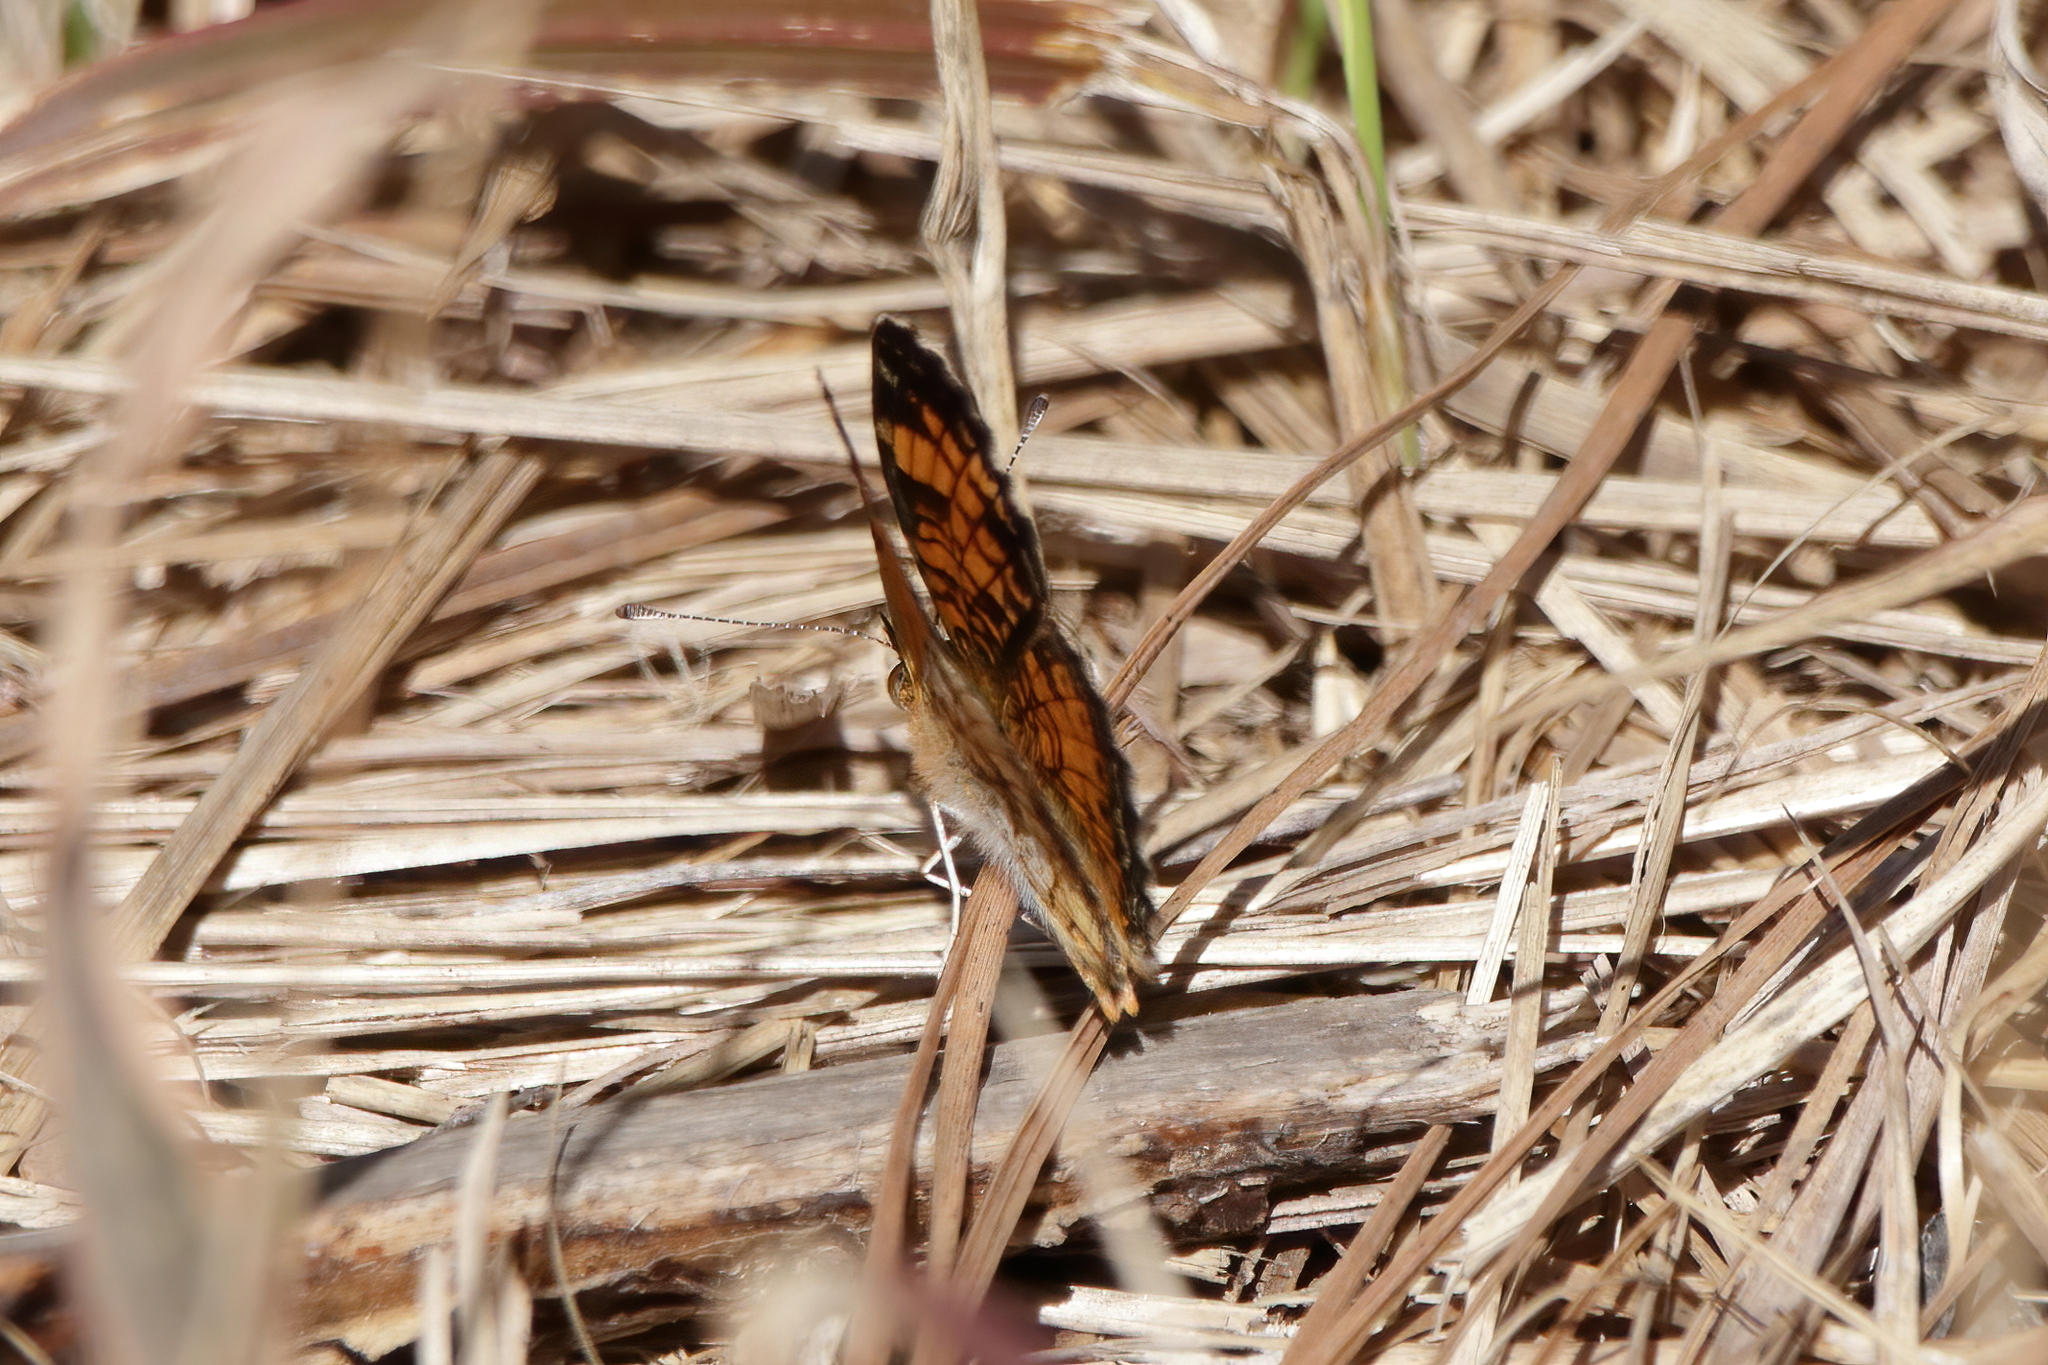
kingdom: Animalia
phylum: Arthropoda
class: Insecta
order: Lepidoptera
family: Nymphalidae
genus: Junonia
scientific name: Junonia coenia
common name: Common buckeye
